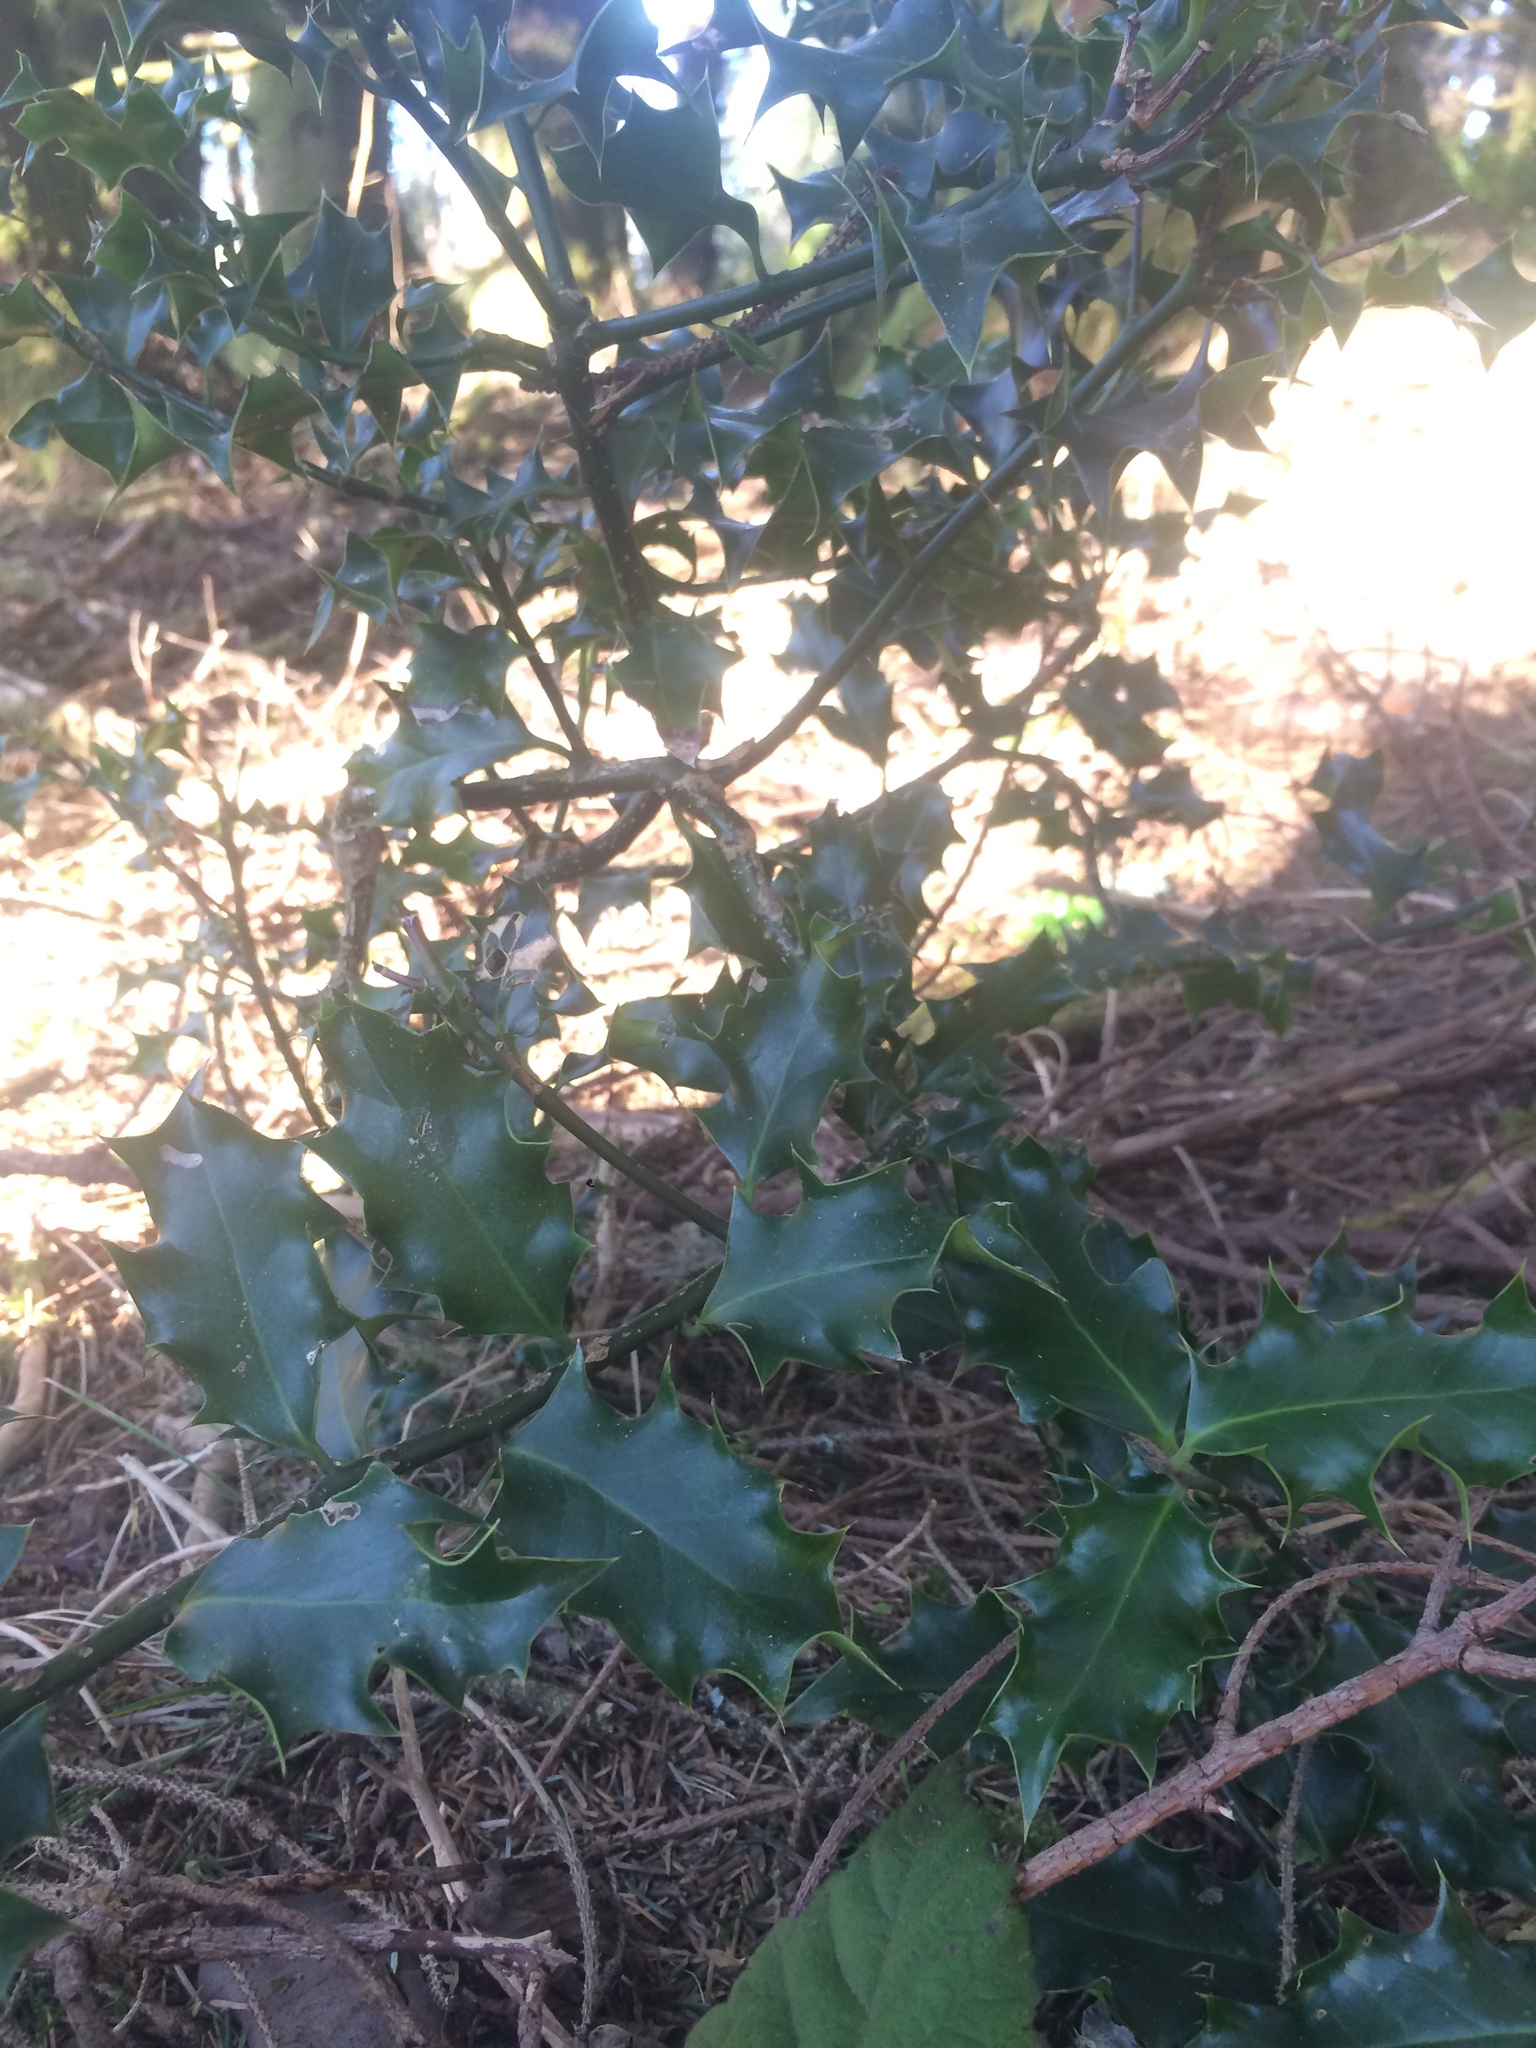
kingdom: Plantae
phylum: Tracheophyta
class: Magnoliopsida
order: Aquifoliales
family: Aquifoliaceae
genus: Ilex
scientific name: Ilex aquifolium
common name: English holly
